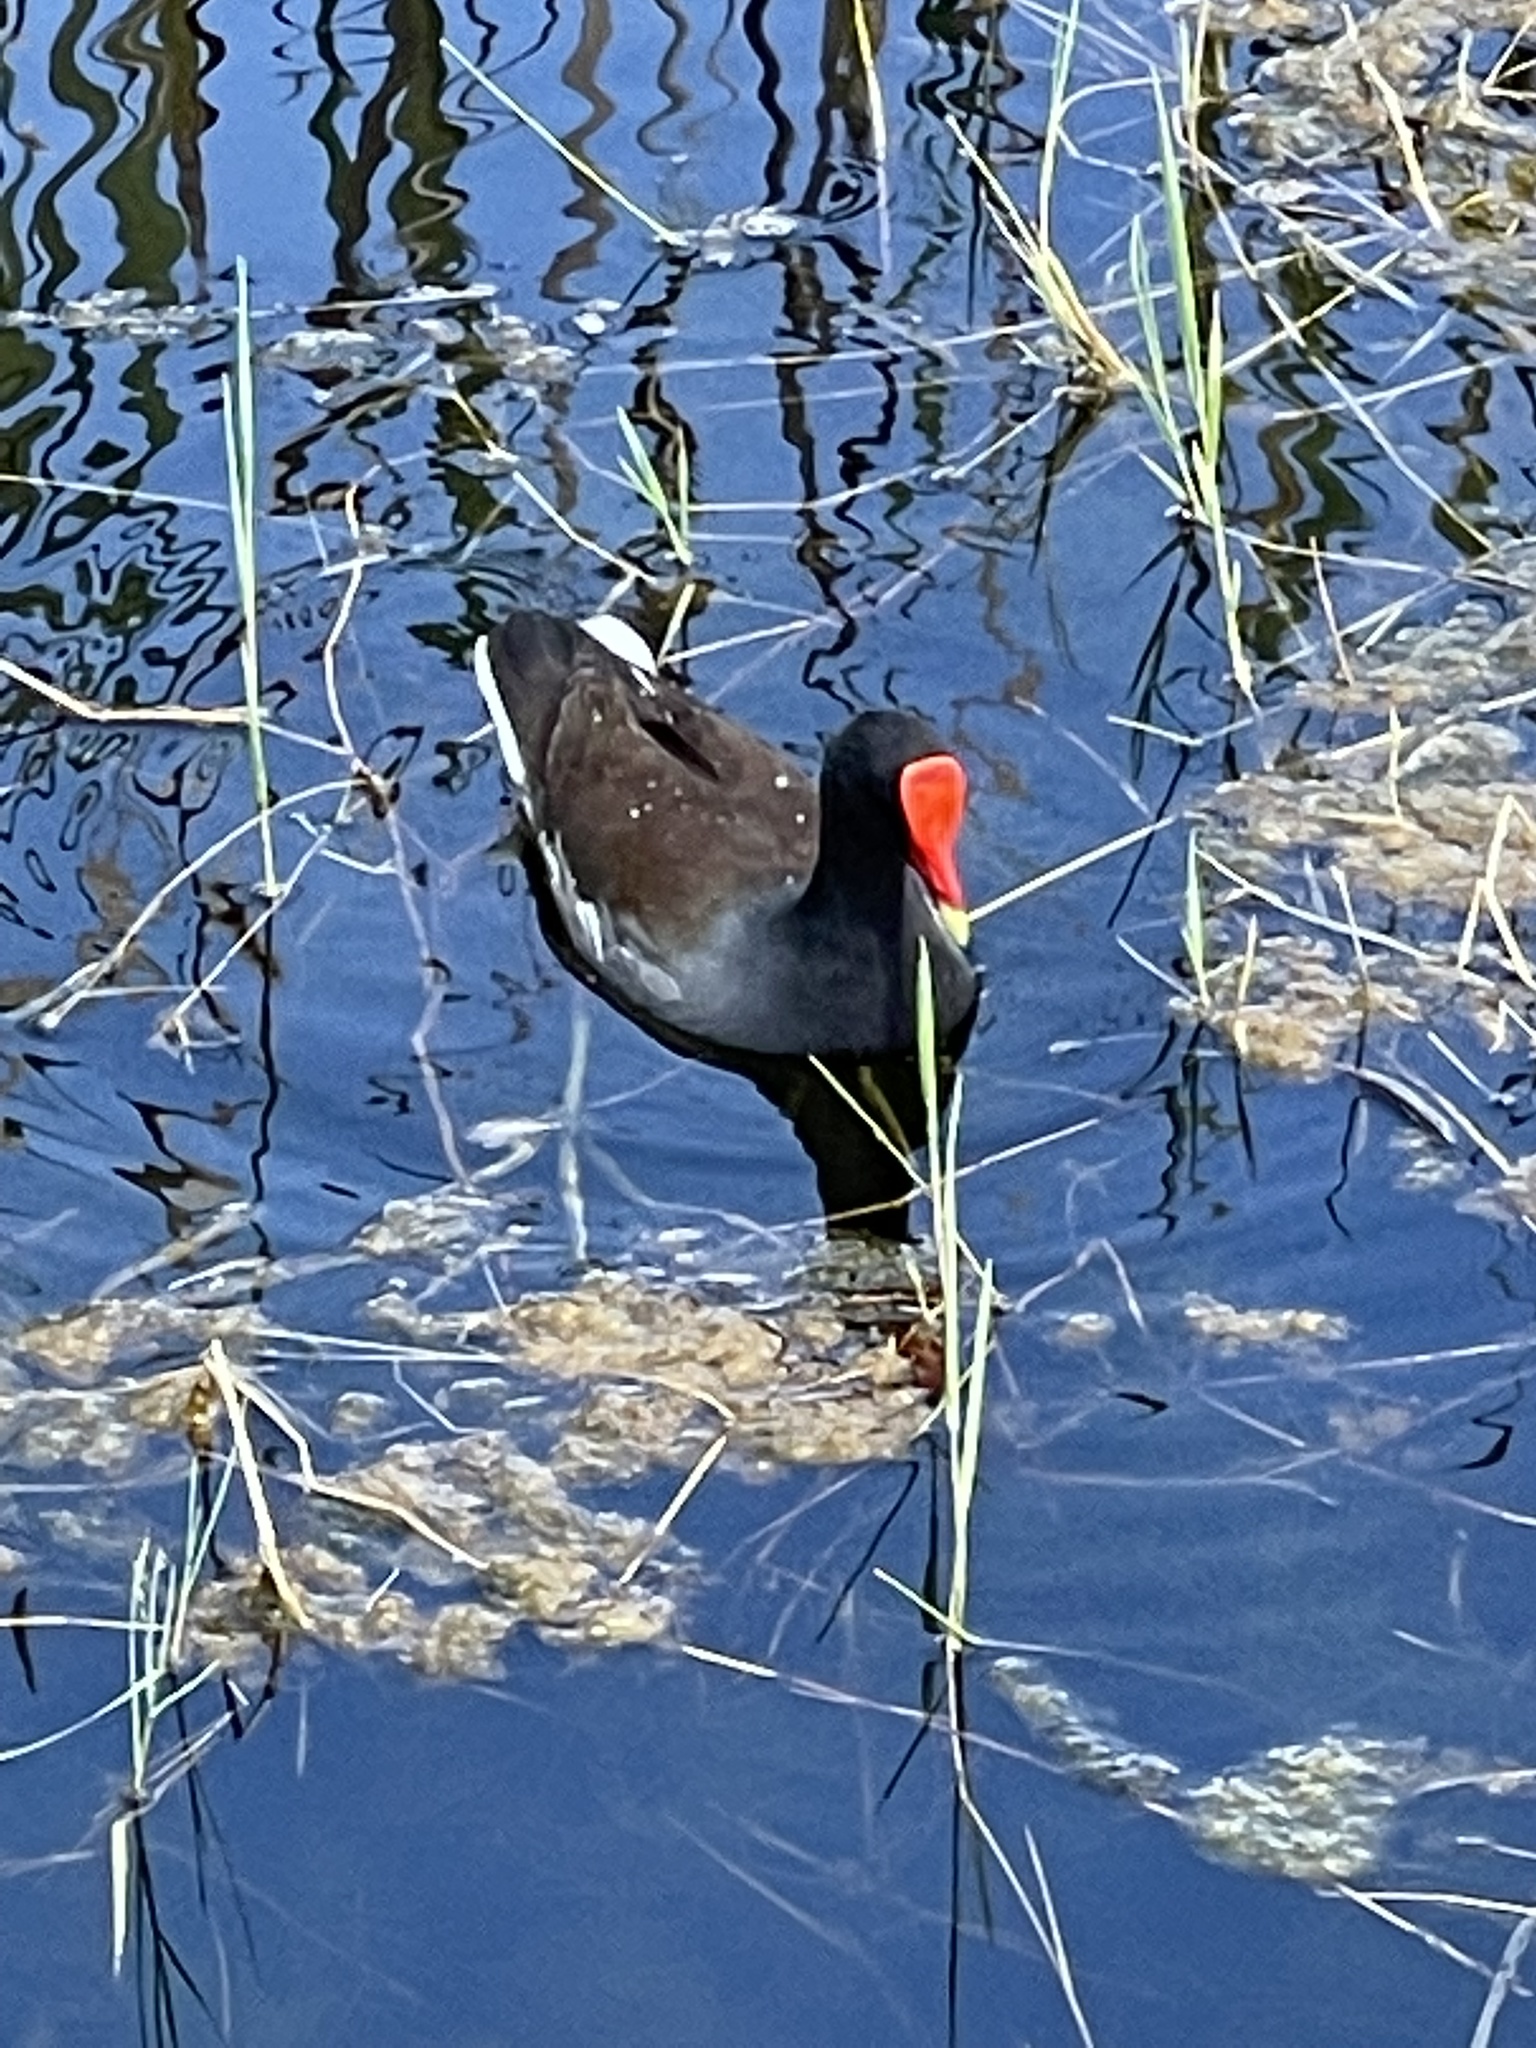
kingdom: Animalia
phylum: Chordata
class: Aves
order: Gruiformes
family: Rallidae
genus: Gallinula
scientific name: Gallinula chloropus
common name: Common moorhen
